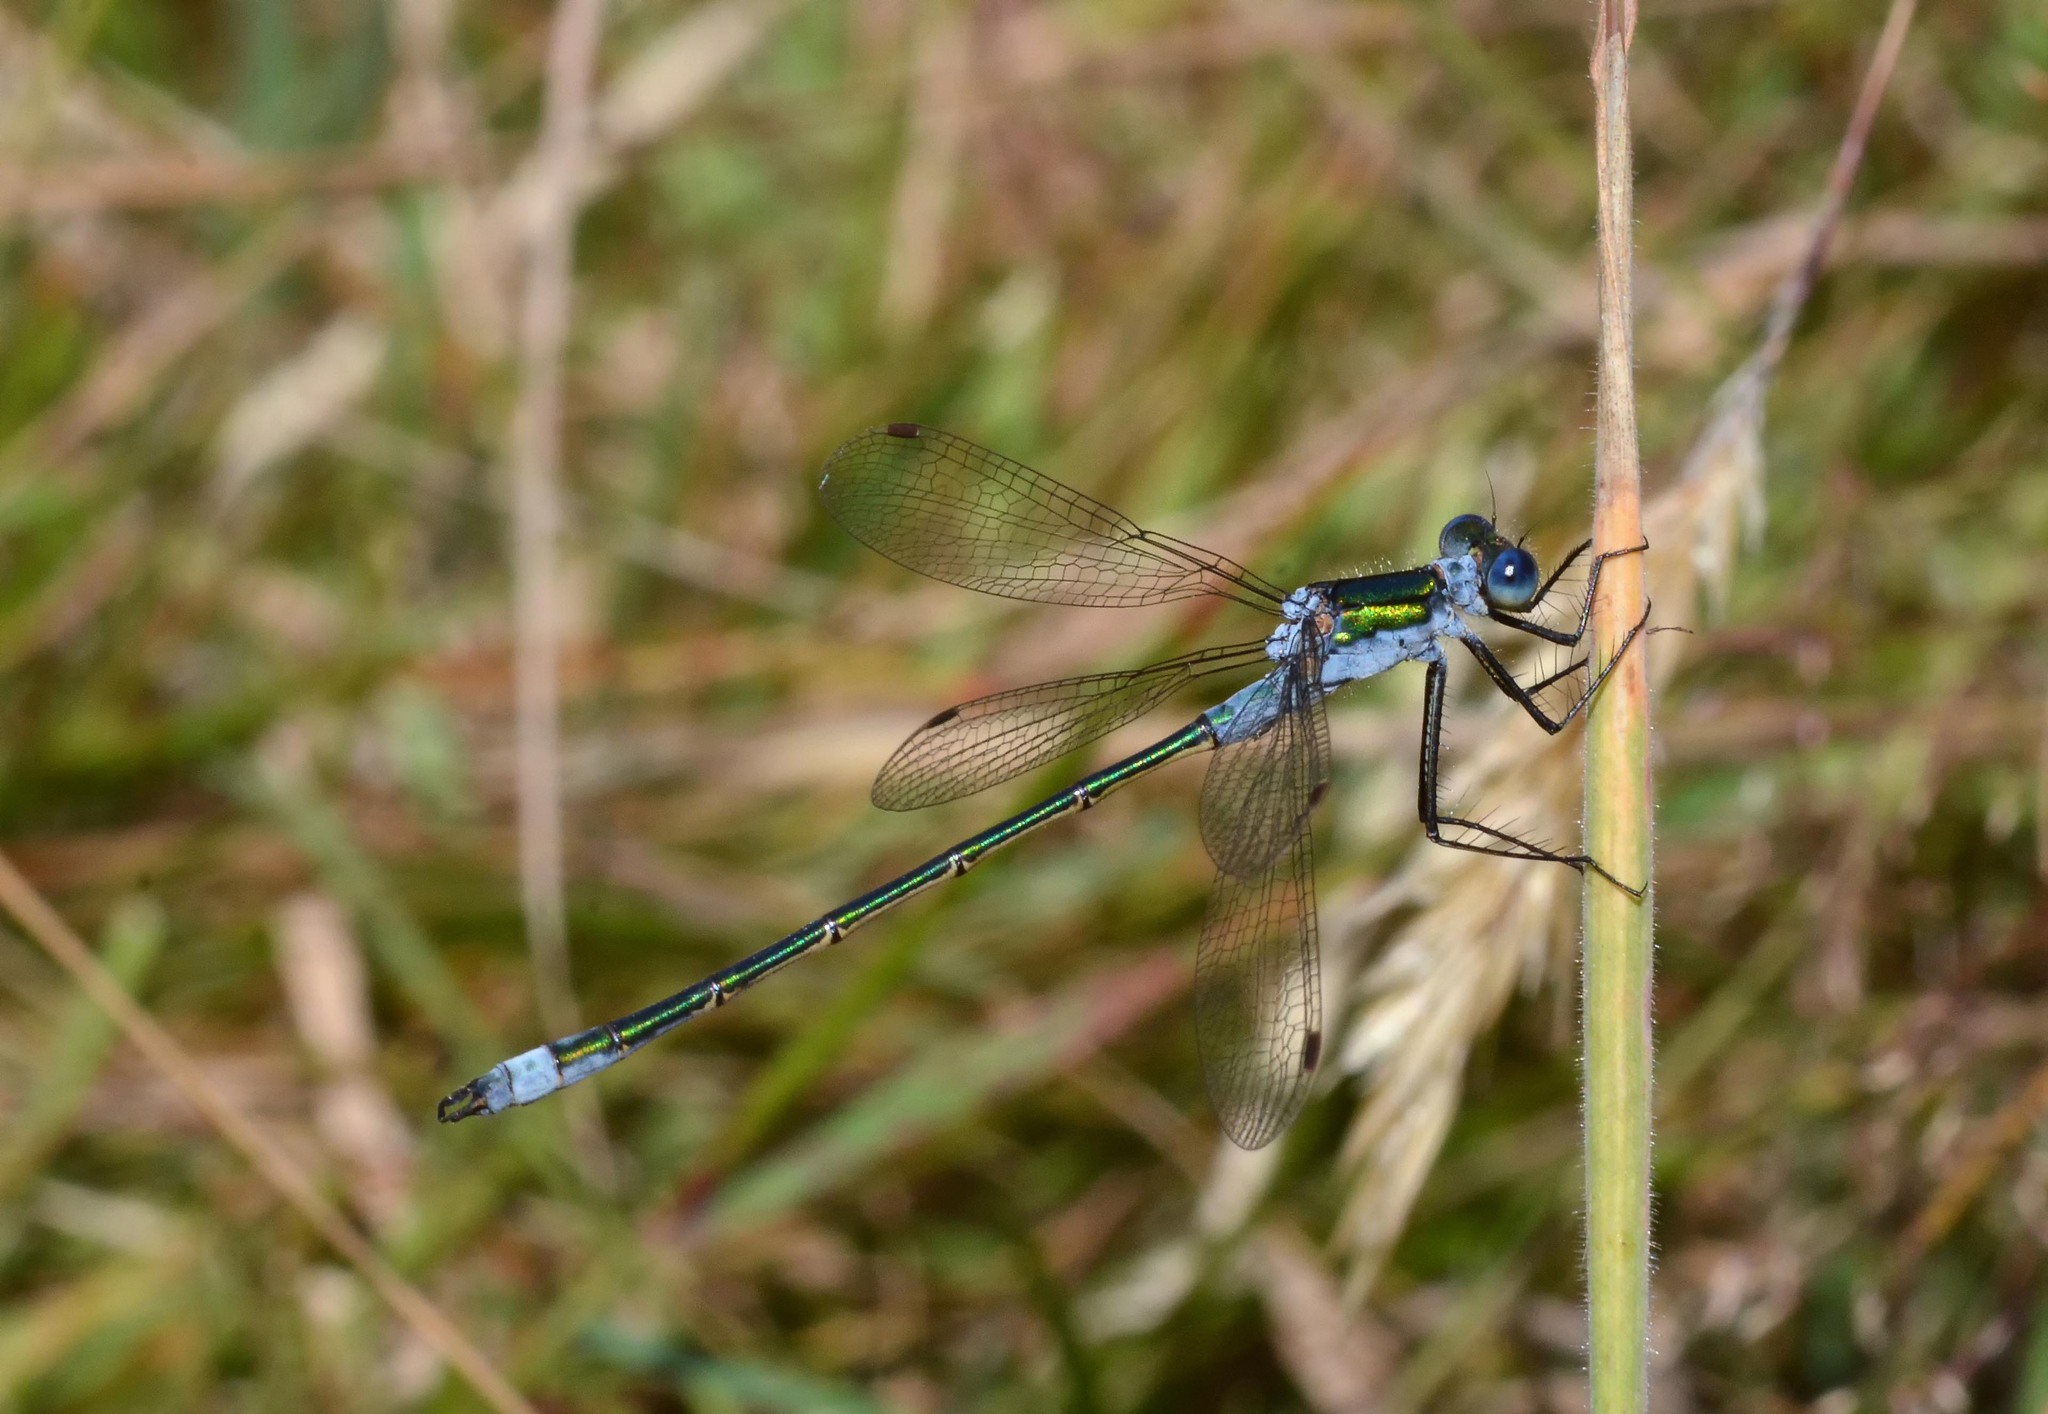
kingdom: Animalia
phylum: Arthropoda
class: Insecta
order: Odonata
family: Lestidae
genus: Lestes
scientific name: Lestes sponsa
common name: Common spreadwing
